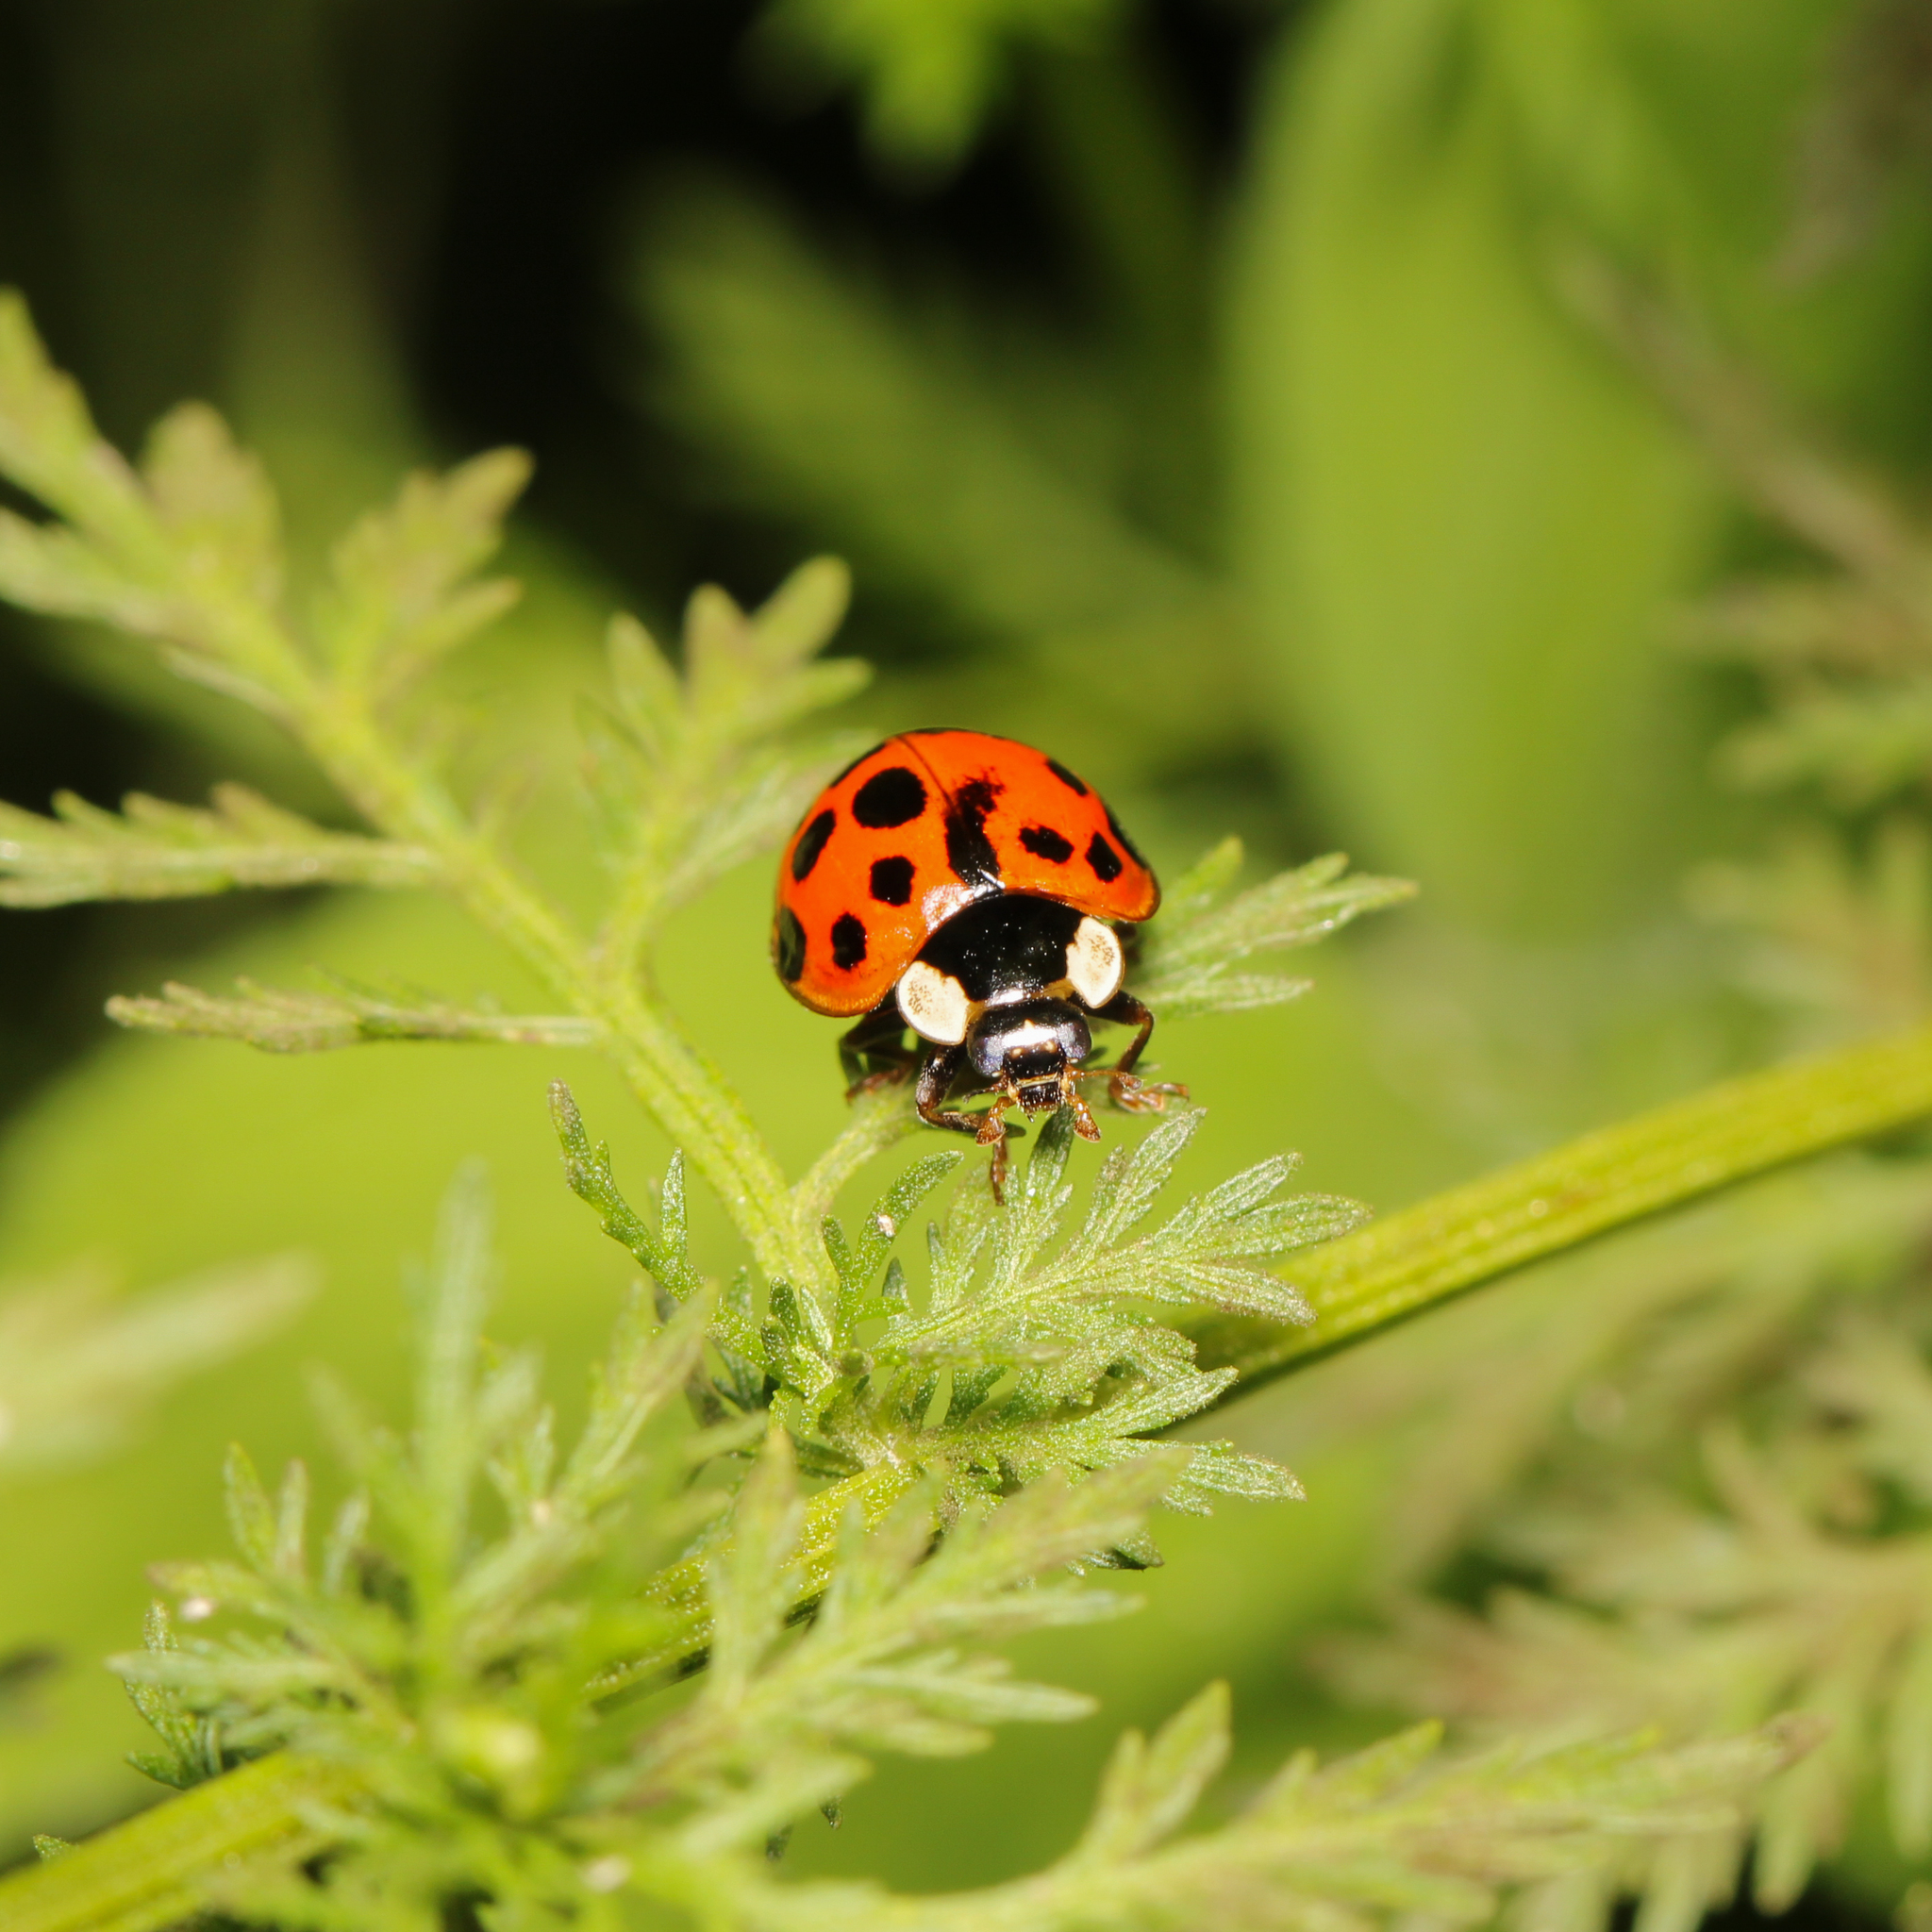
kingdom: Animalia
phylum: Arthropoda
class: Insecta
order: Coleoptera
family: Coccinellidae
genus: Harmonia
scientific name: Harmonia axyridis
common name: Harlequin ladybird
